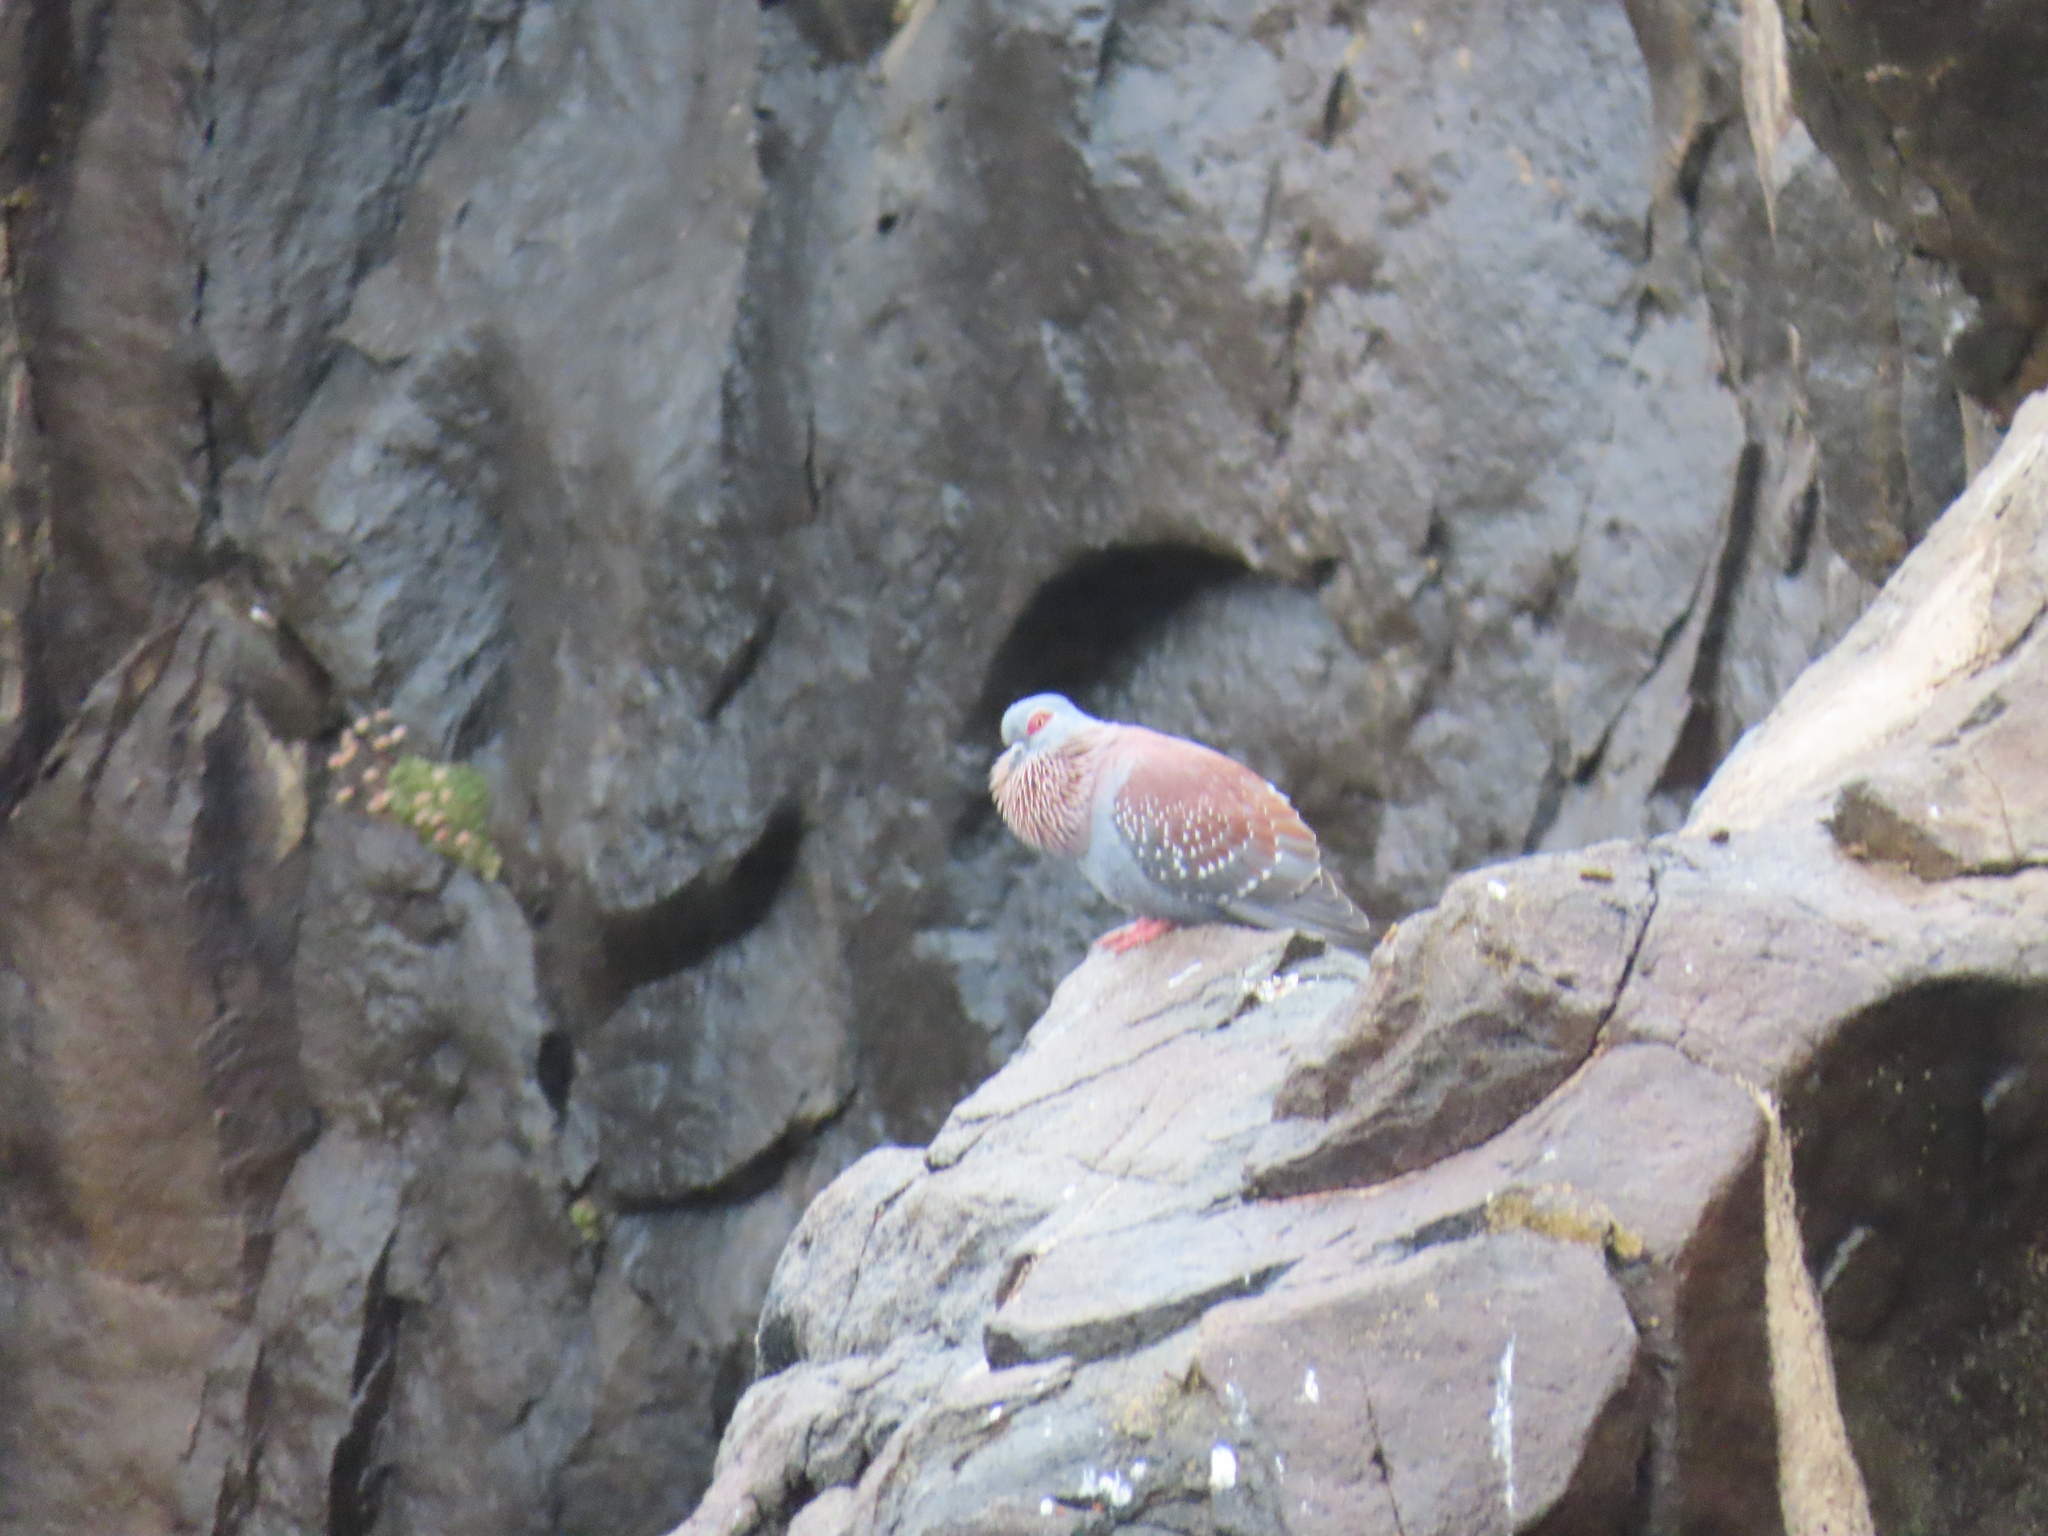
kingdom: Animalia
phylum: Chordata
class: Aves
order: Columbiformes
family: Columbidae
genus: Columba
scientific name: Columba guinea
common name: Speckled pigeon
